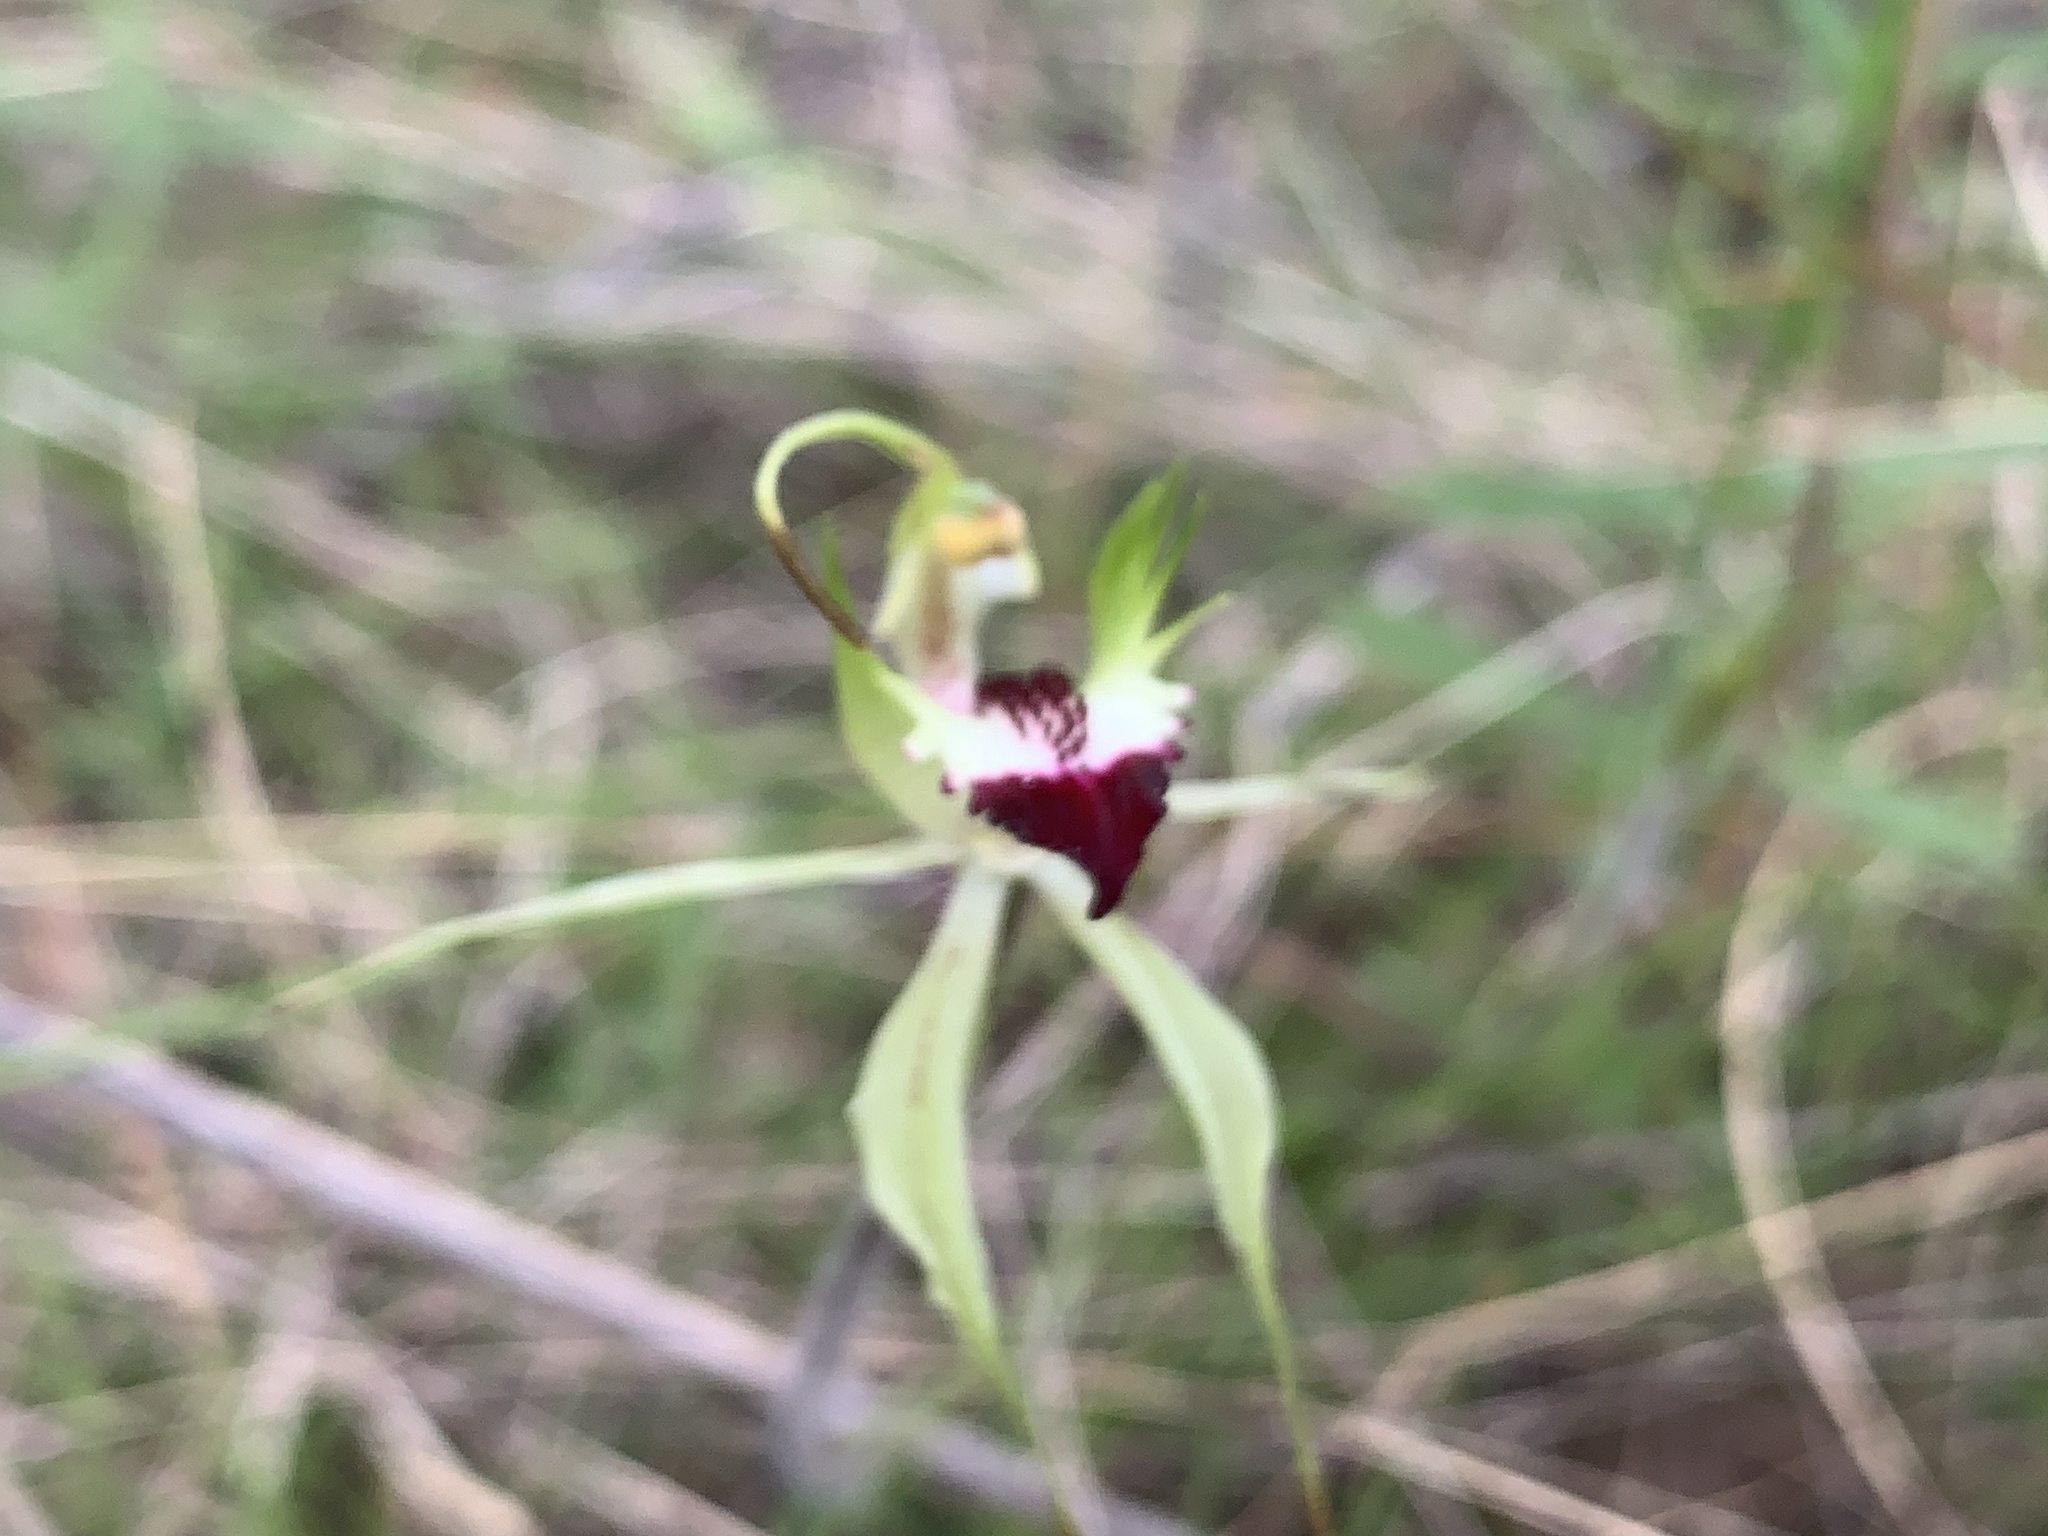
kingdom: Plantae
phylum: Tracheophyta
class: Liliopsida
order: Asparagales
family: Orchidaceae
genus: Caladenia
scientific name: Caladenia atrovespa
